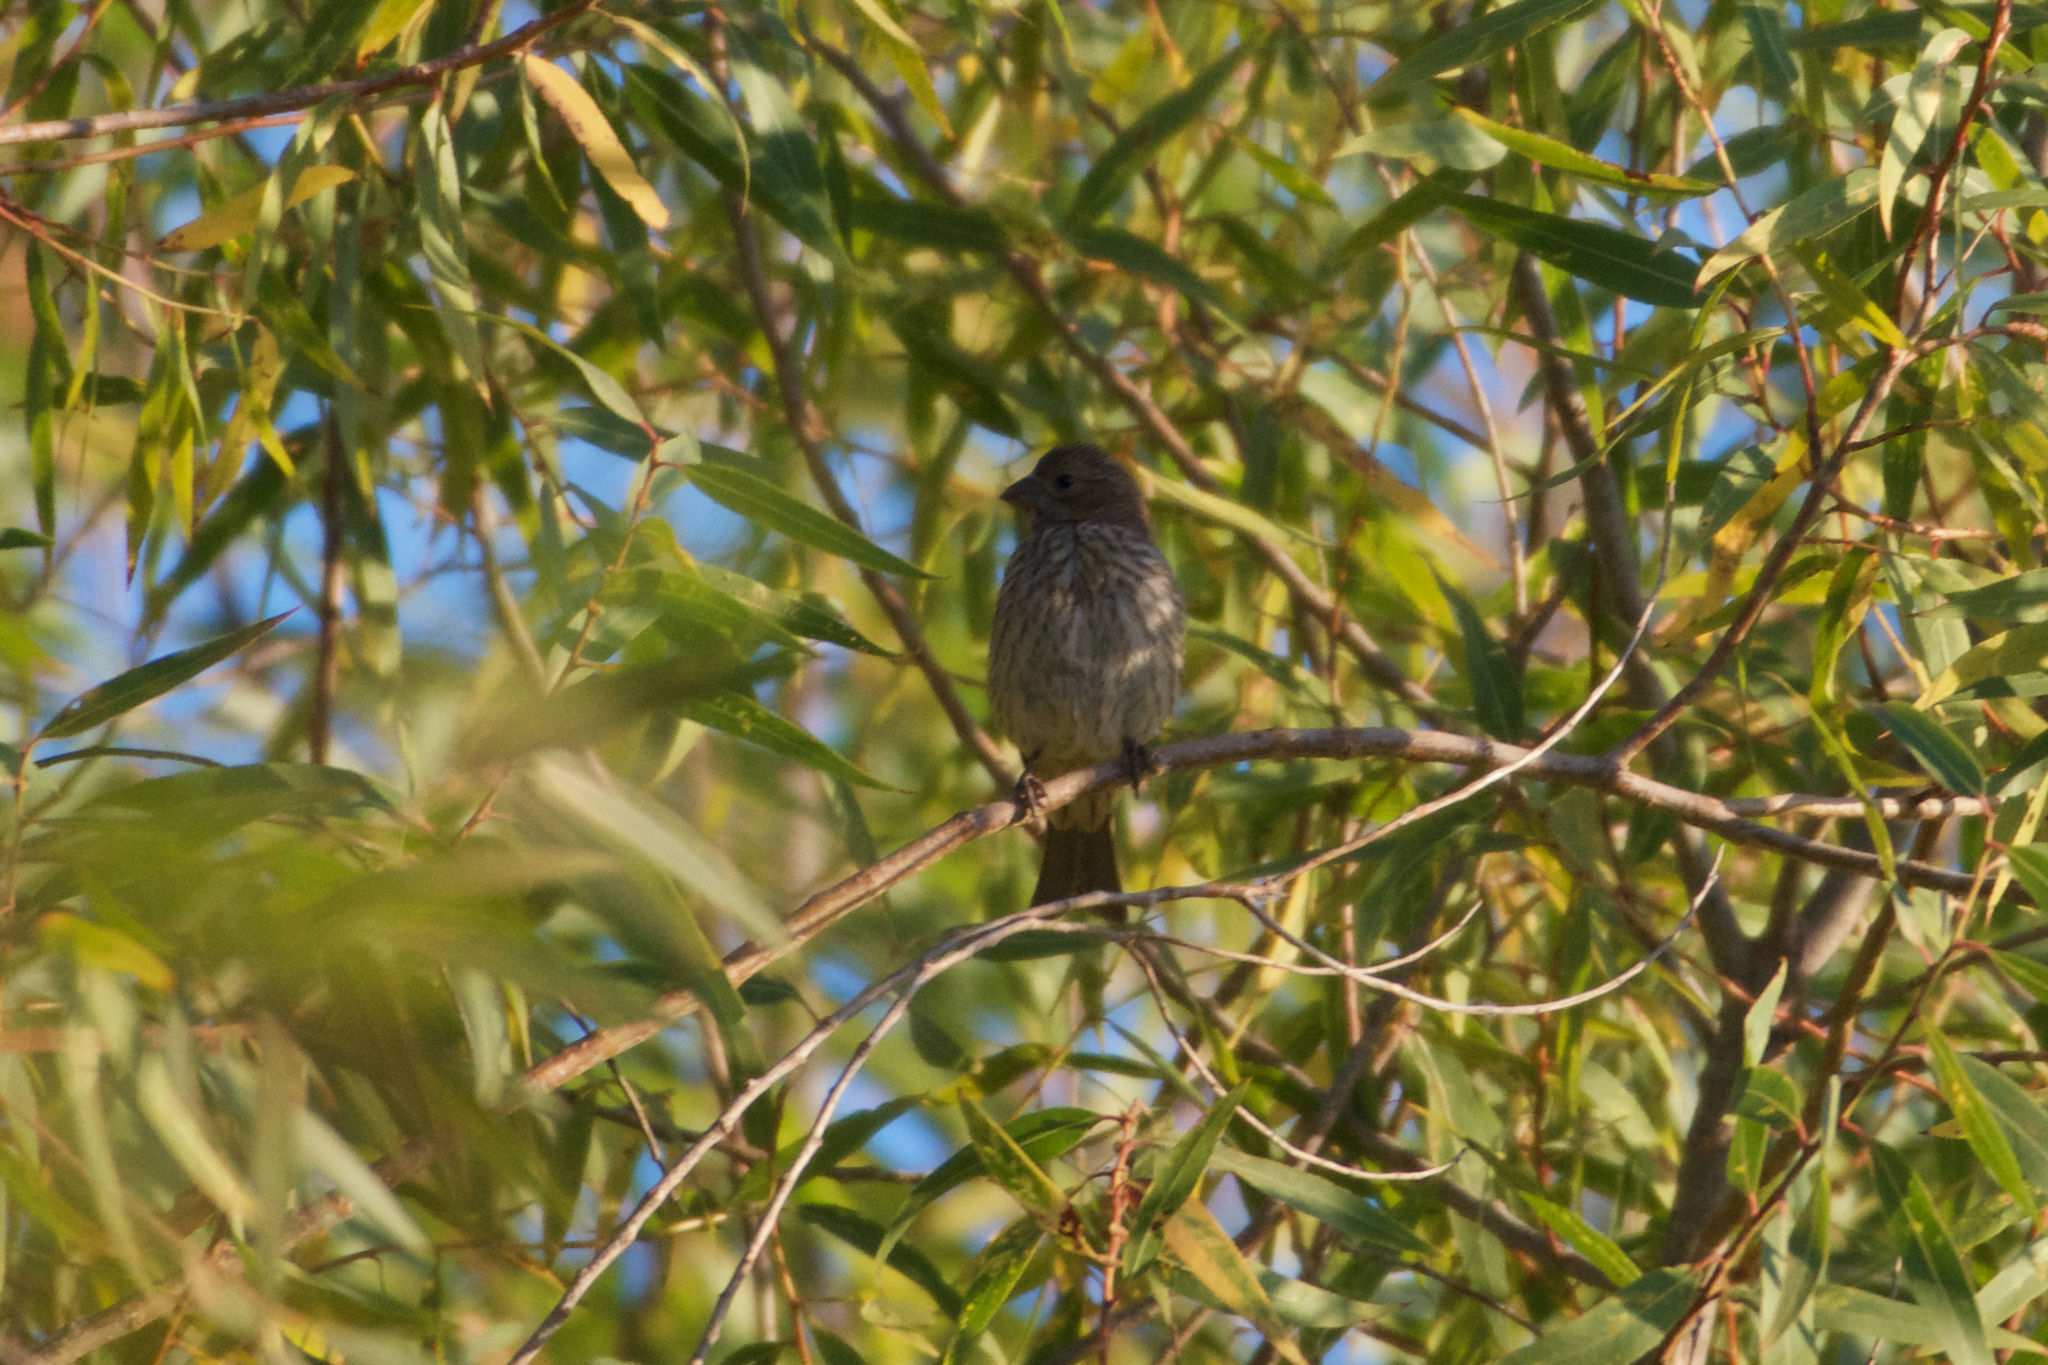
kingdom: Animalia
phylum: Chordata
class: Aves
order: Passeriformes
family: Fringillidae
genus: Haemorhous
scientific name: Haemorhous mexicanus
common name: House finch
